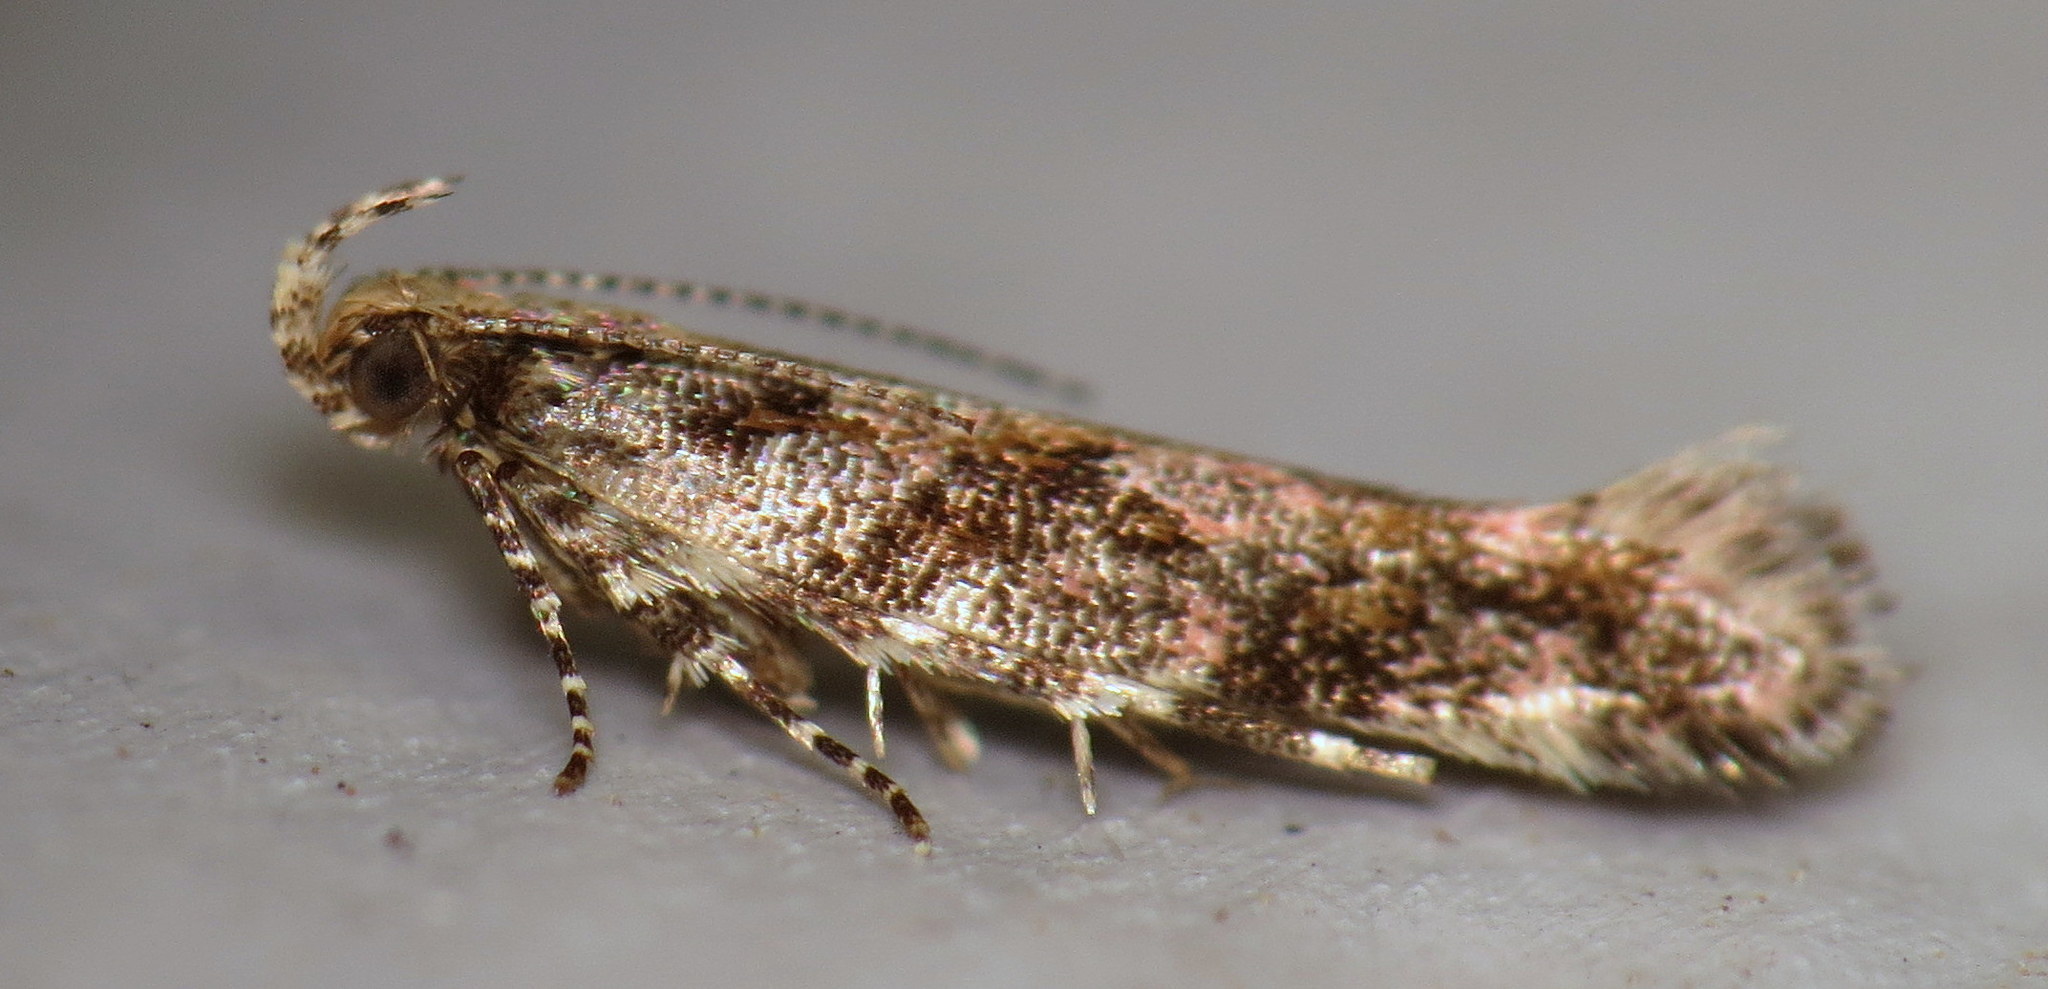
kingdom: Animalia
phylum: Arthropoda
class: Insecta
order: Lepidoptera
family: Gelechiidae
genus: Aristotelia
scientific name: Aristotelia rubidella
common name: Ruby aristotelia moth
